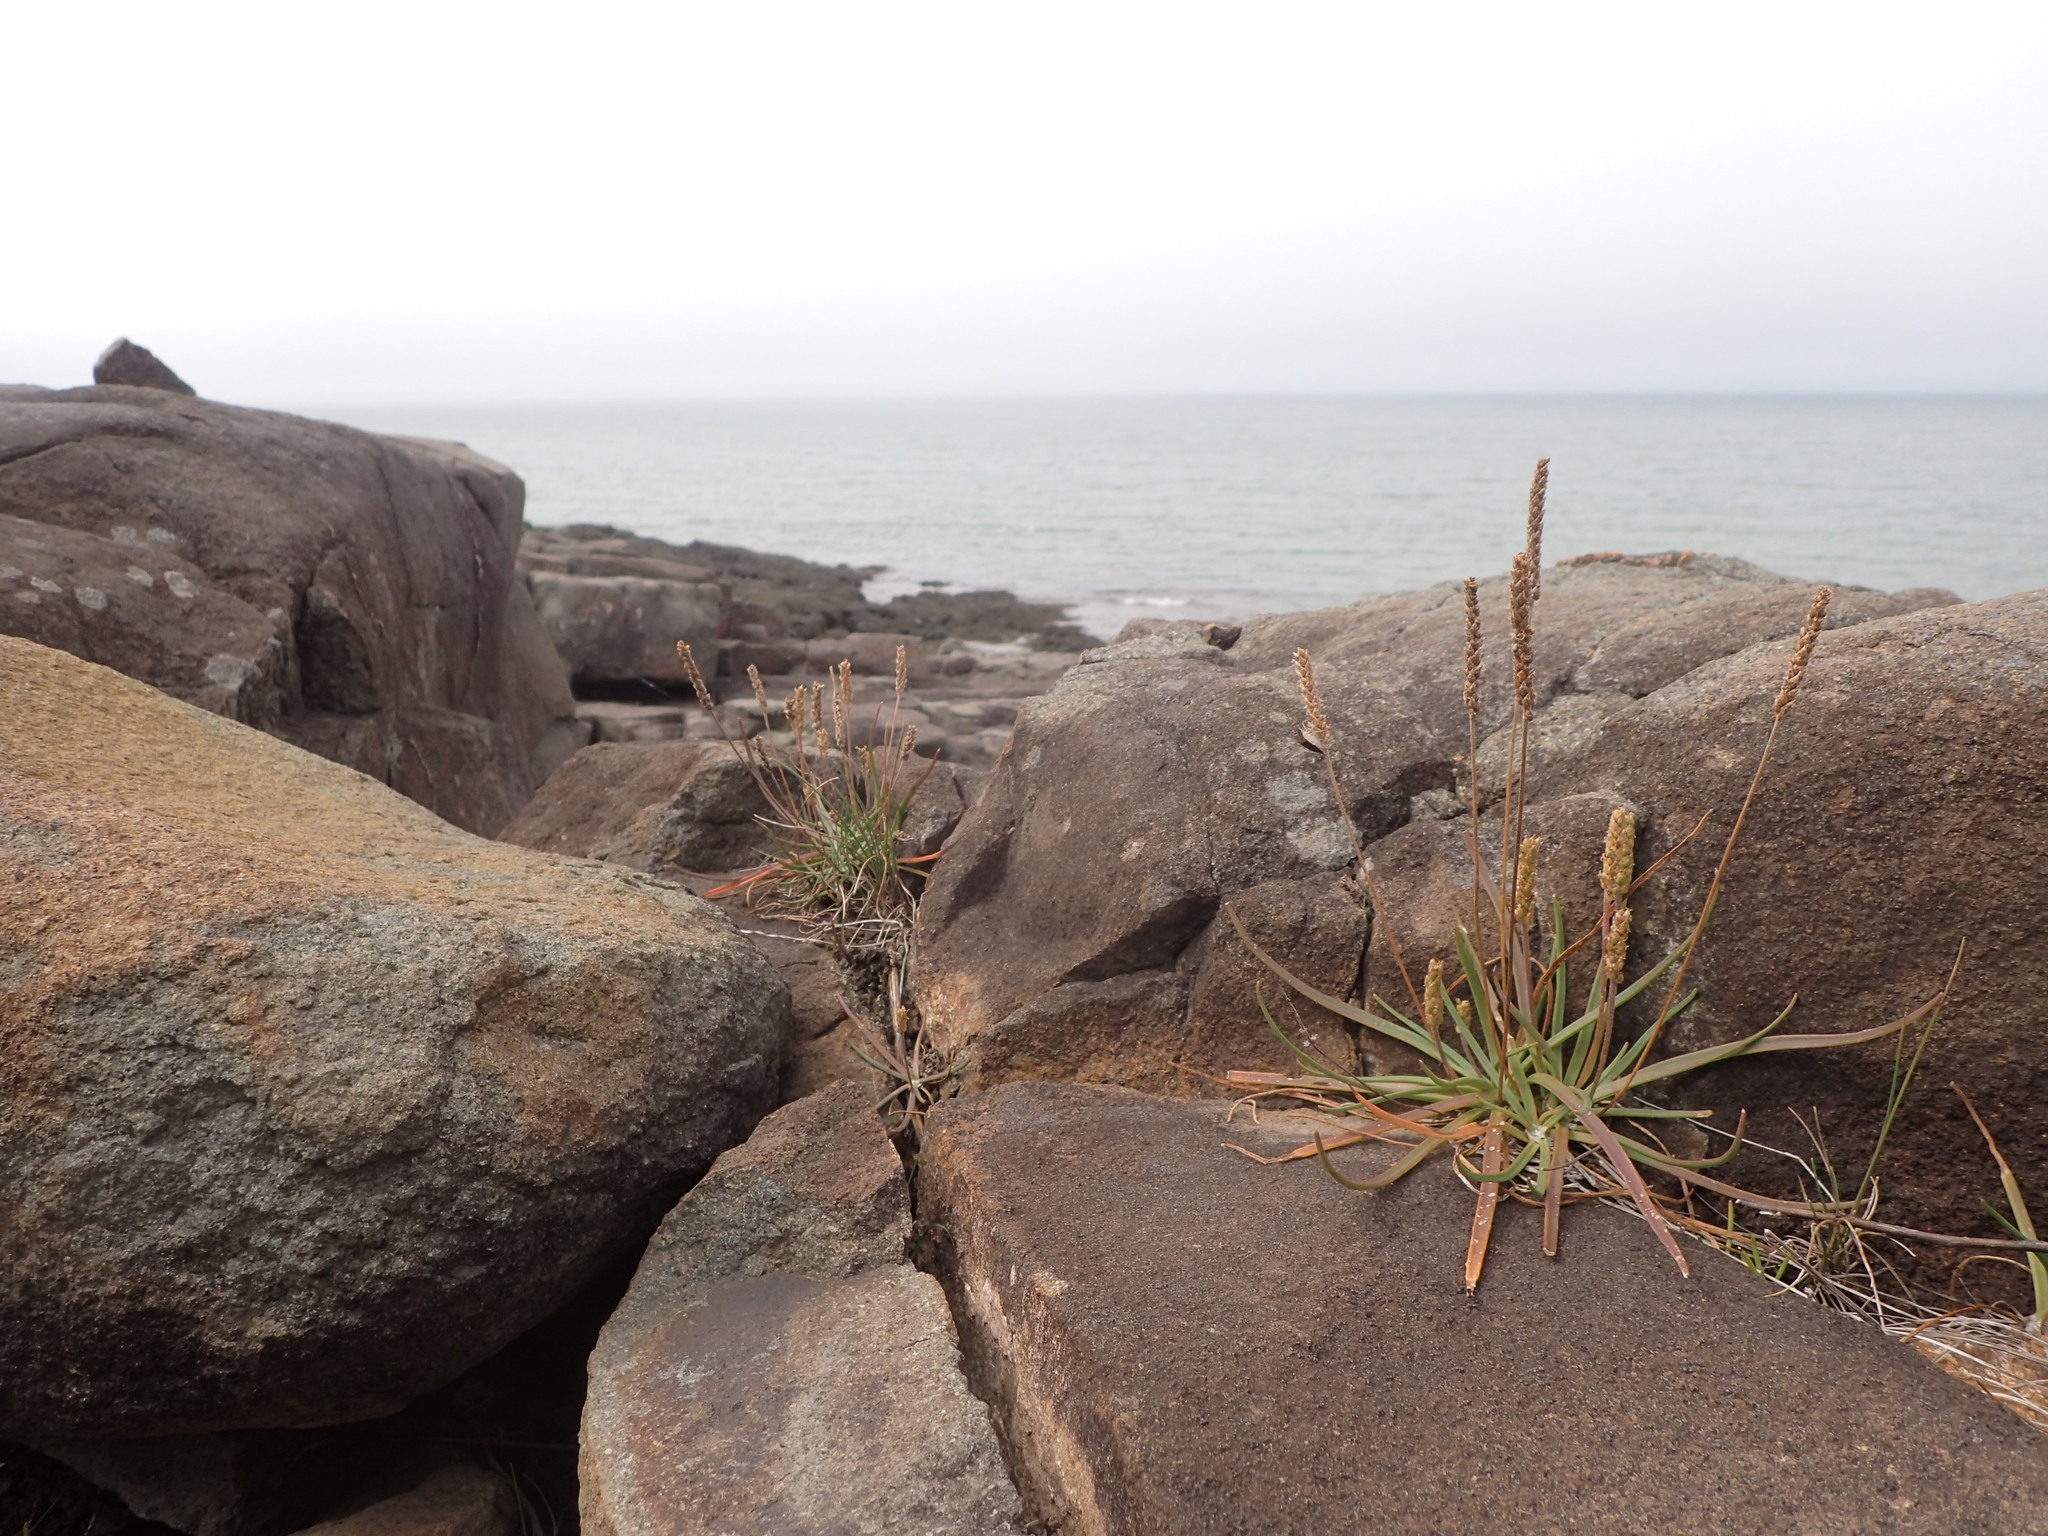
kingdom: Plantae
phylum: Tracheophyta
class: Magnoliopsida
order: Lamiales
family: Plantaginaceae
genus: Plantago
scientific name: Plantago maritima
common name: Sea plantain
